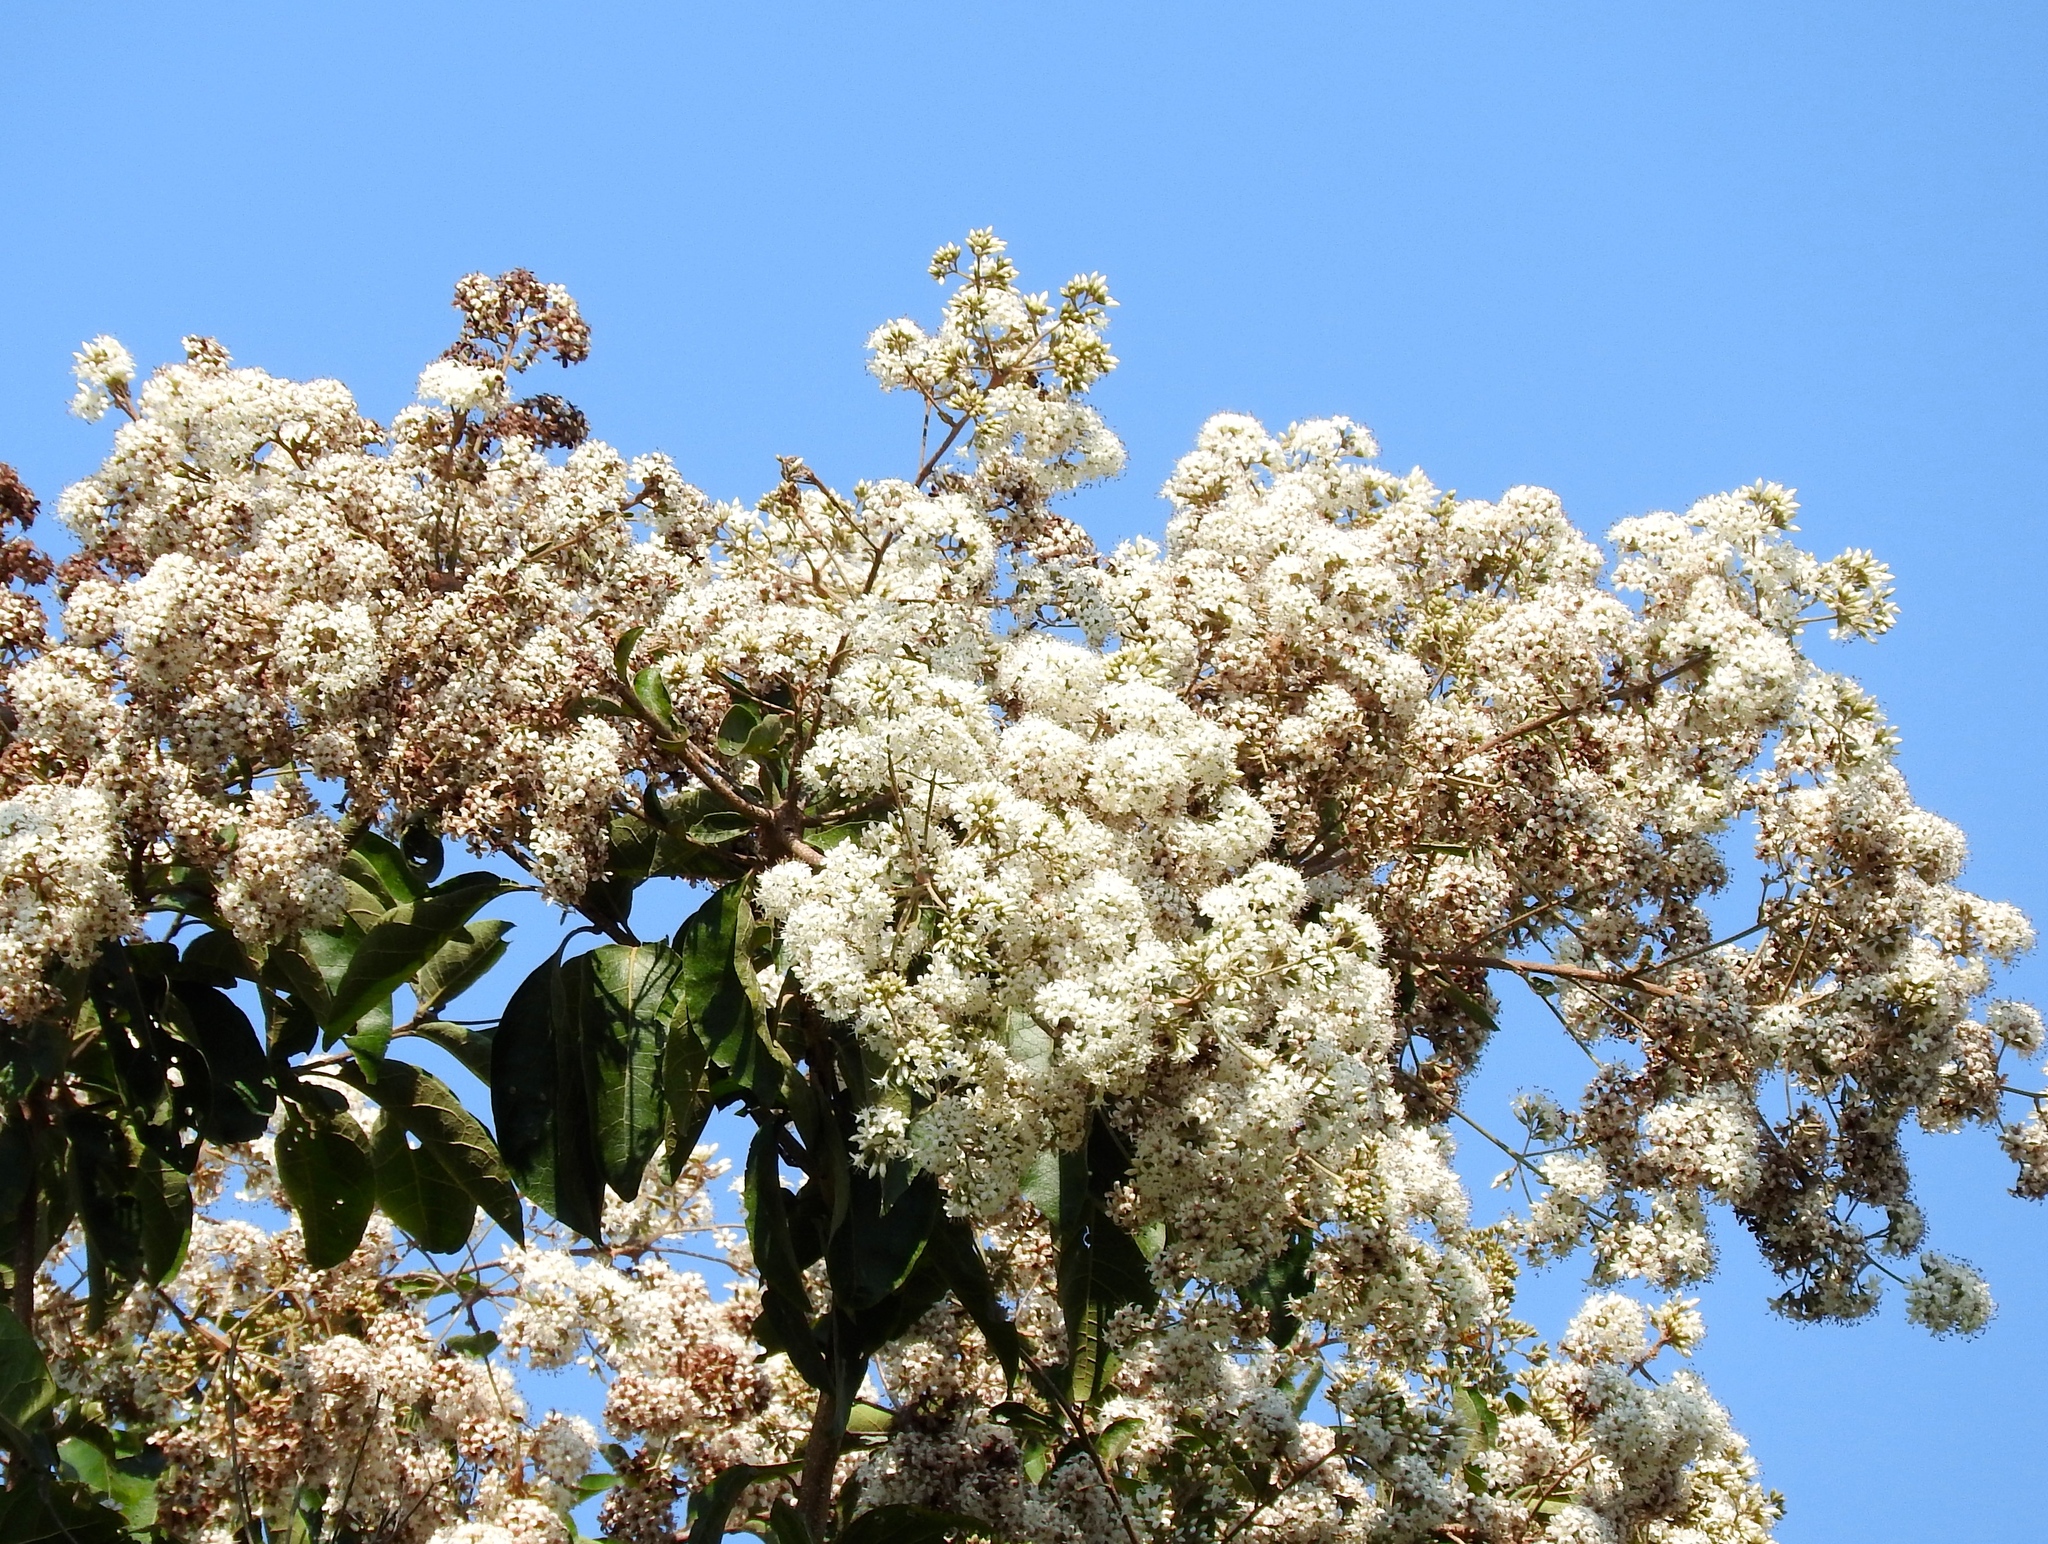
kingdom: Plantae
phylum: Tracheophyta
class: Magnoliopsida
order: Boraginales
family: Cordiaceae
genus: Cordia
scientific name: Cordia alliodora
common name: Spanish elm
